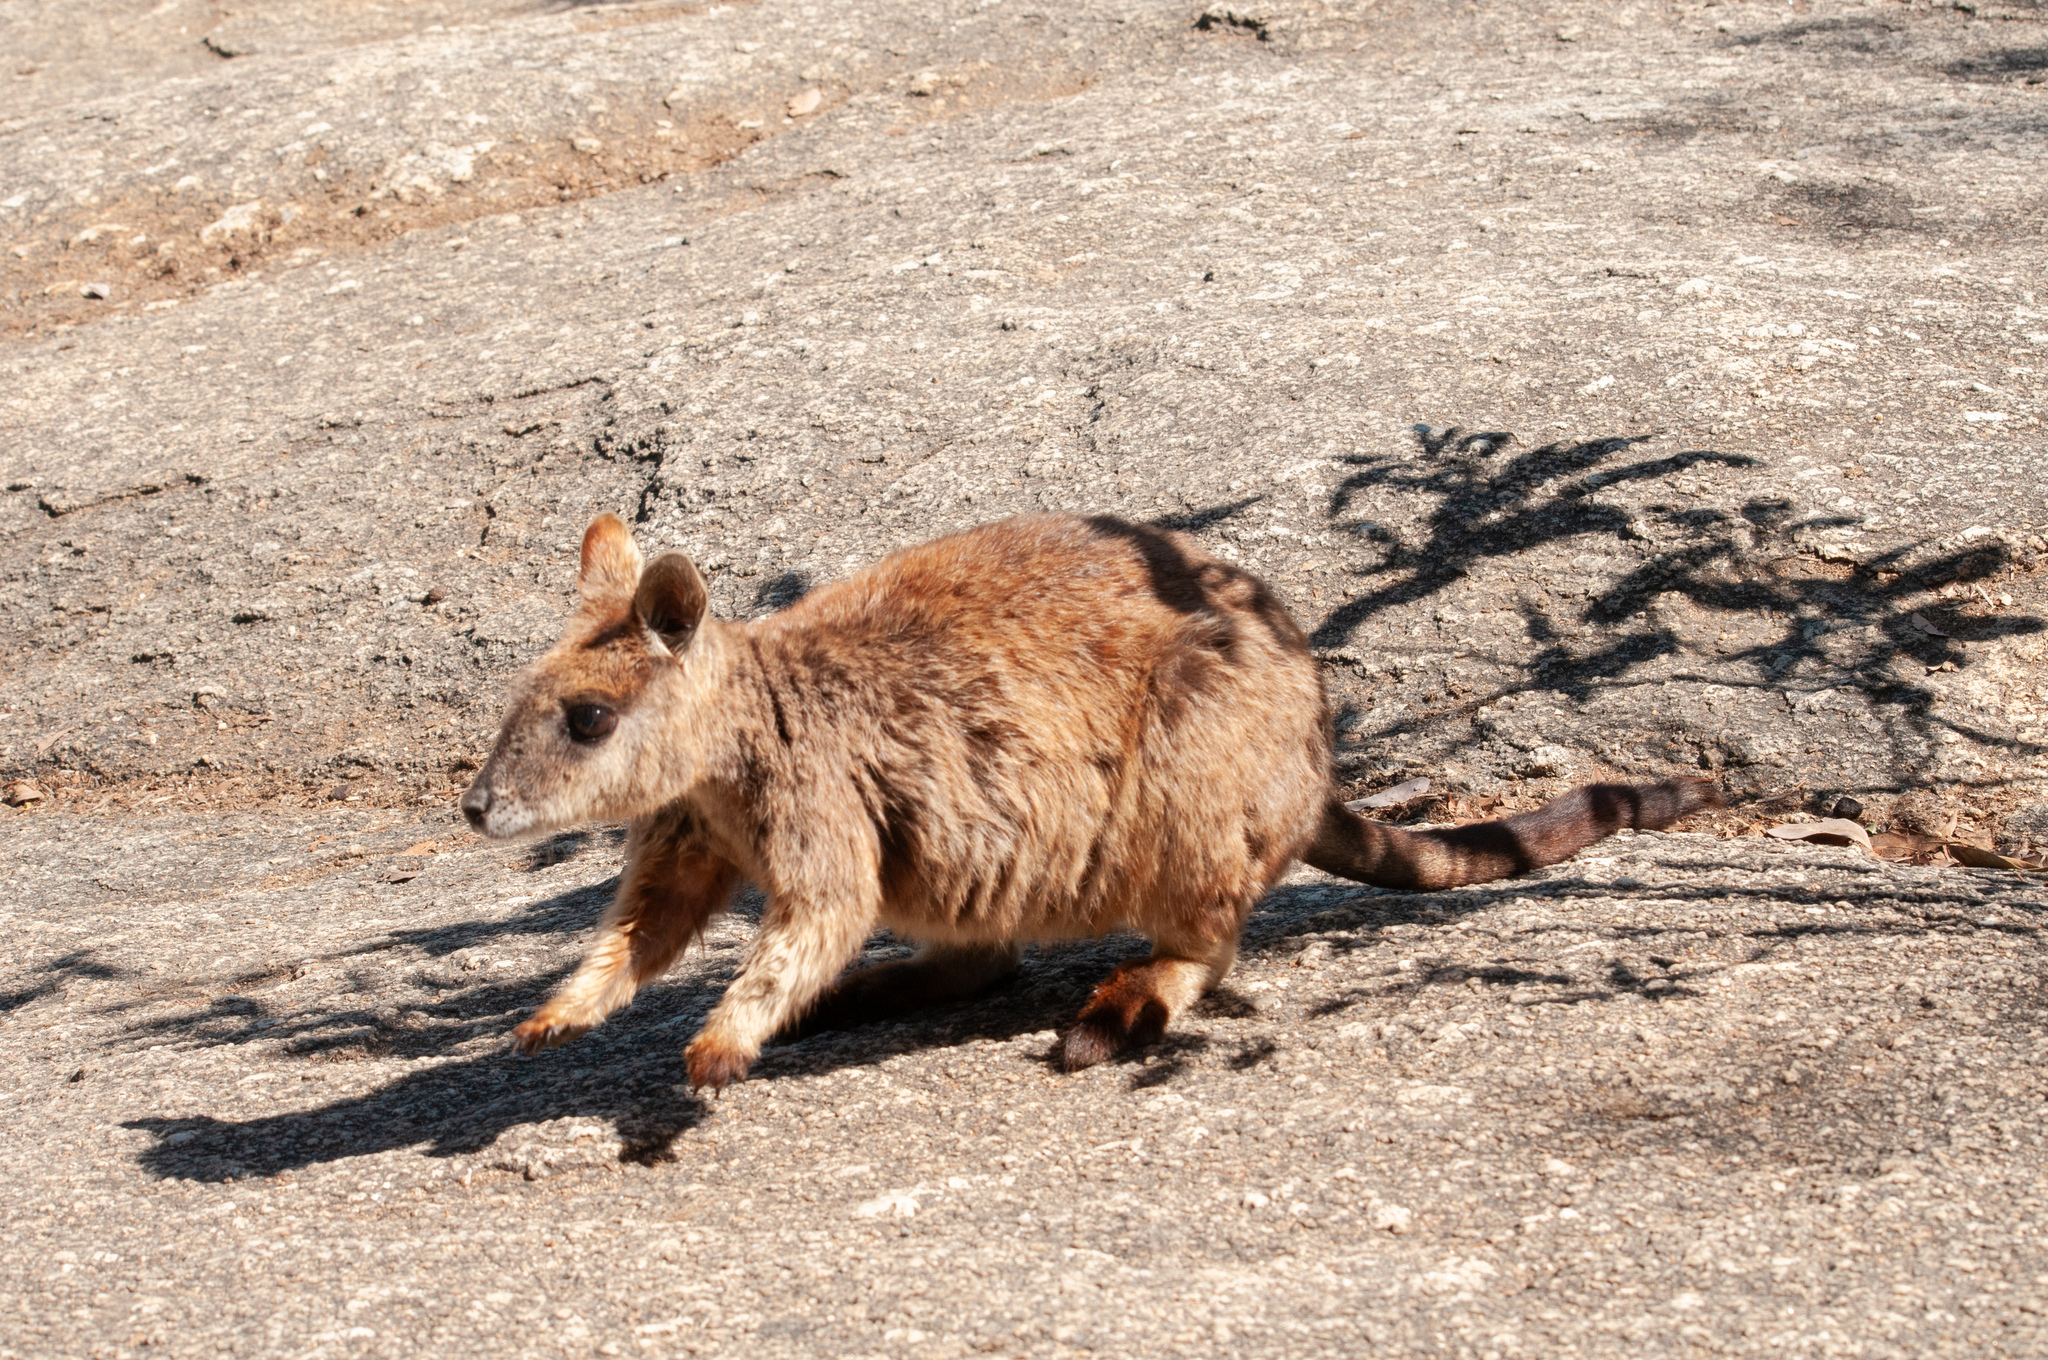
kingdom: Animalia
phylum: Chordata
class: Mammalia
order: Diprotodontia
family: Macropodidae
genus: Petrogale
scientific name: Petrogale mareeba
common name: Mareeba rock-wallaby
